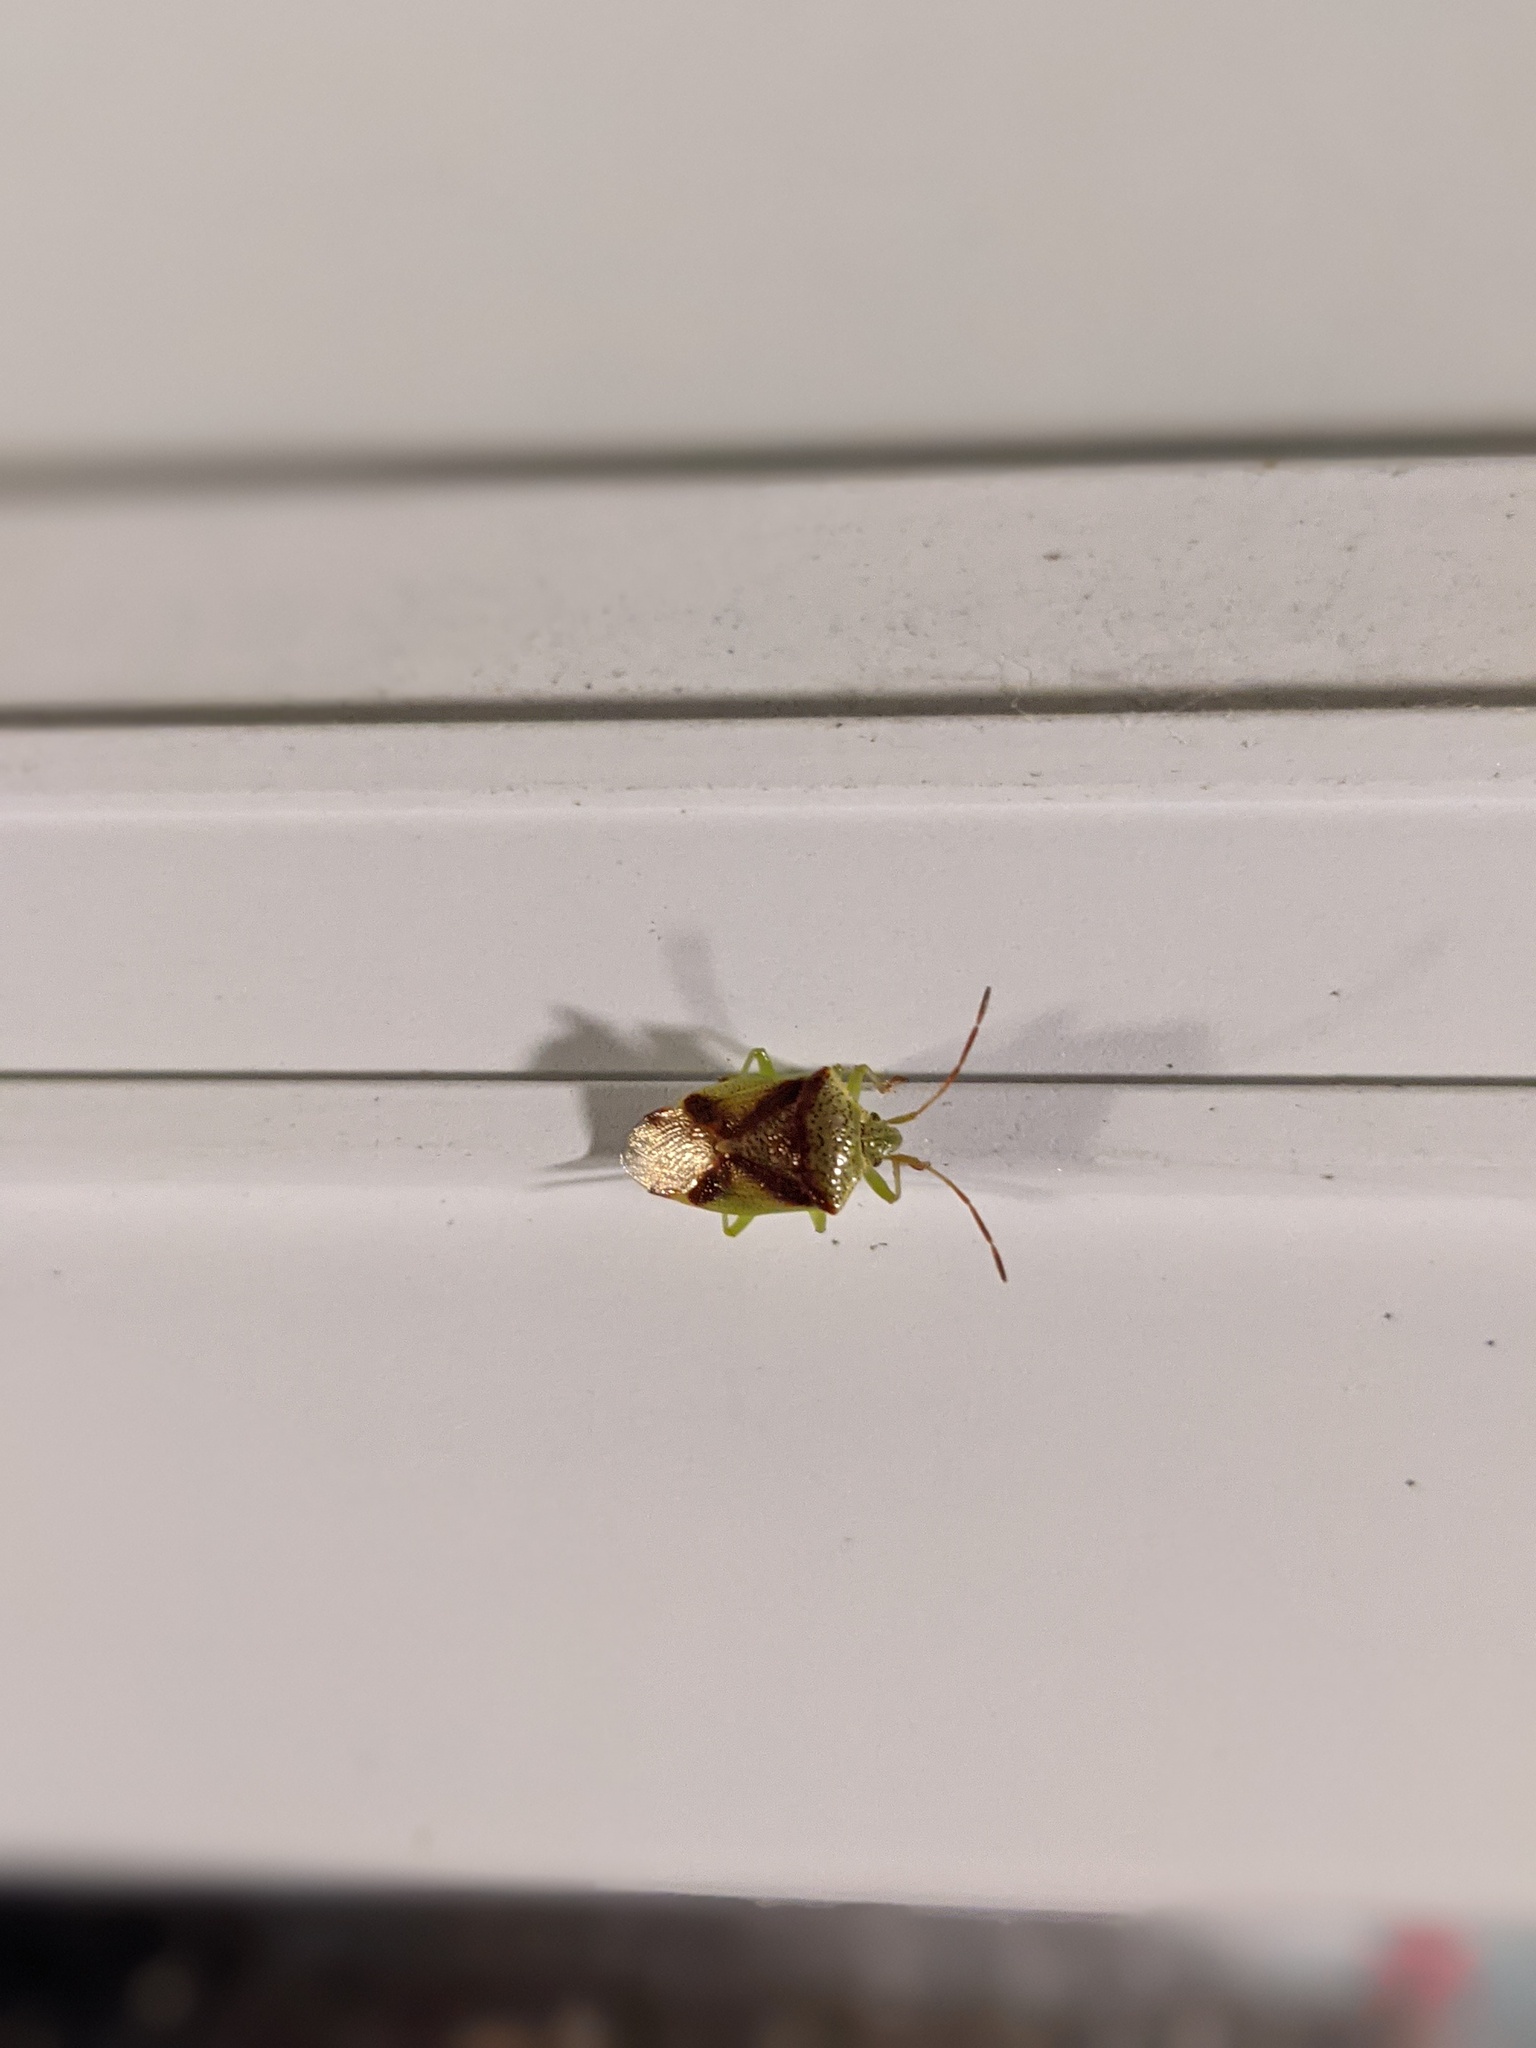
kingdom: Animalia
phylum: Arthropoda
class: Insecta
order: Hemiptera
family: Acanthosomatidae
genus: Elasmostethus
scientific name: Elasmostethus cruciatus
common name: Red-cross shield bug
